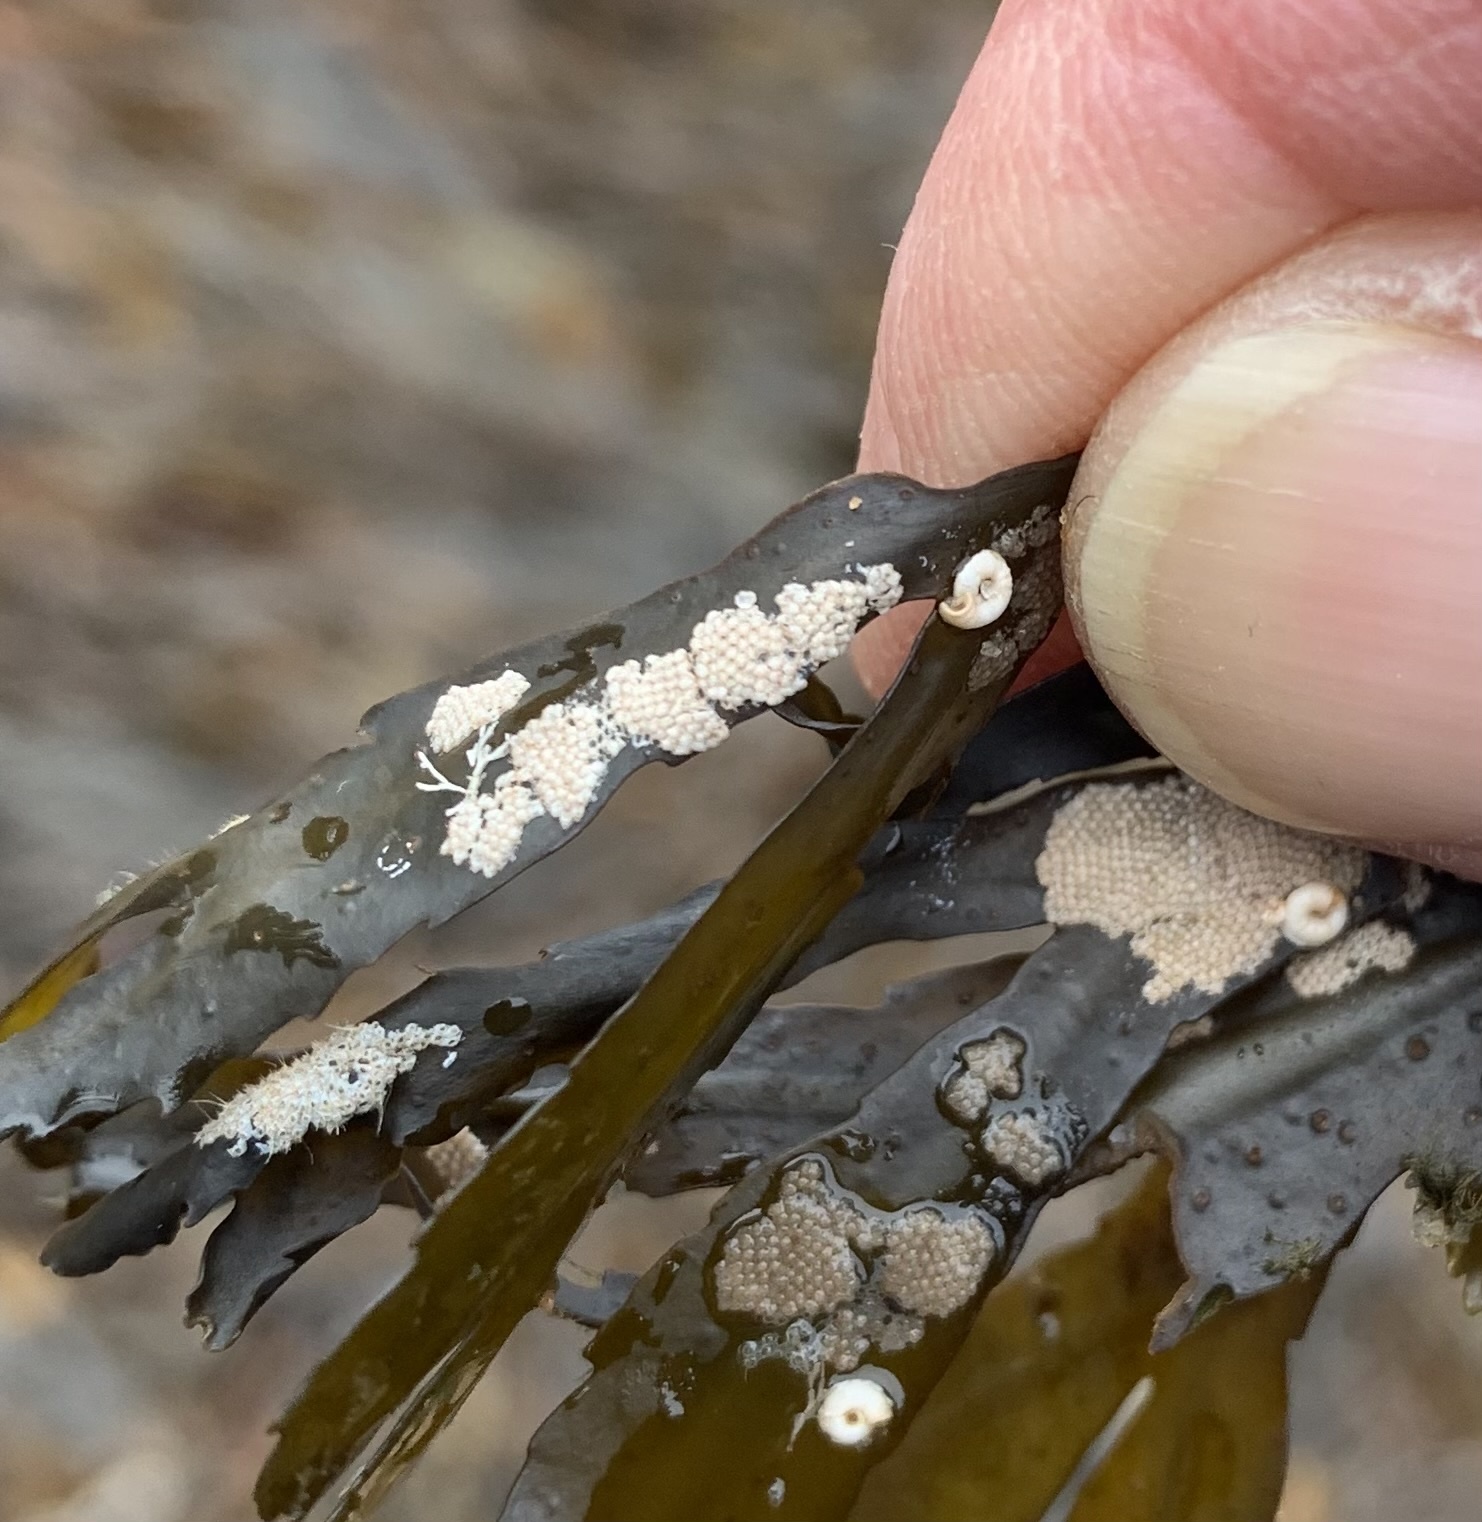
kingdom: Animalia
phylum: Bryozoa
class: Gymnolaemata
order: Cheilostomatida
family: Electridae
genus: Electra
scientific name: Electra pilosa
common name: Hairy sea-mat
